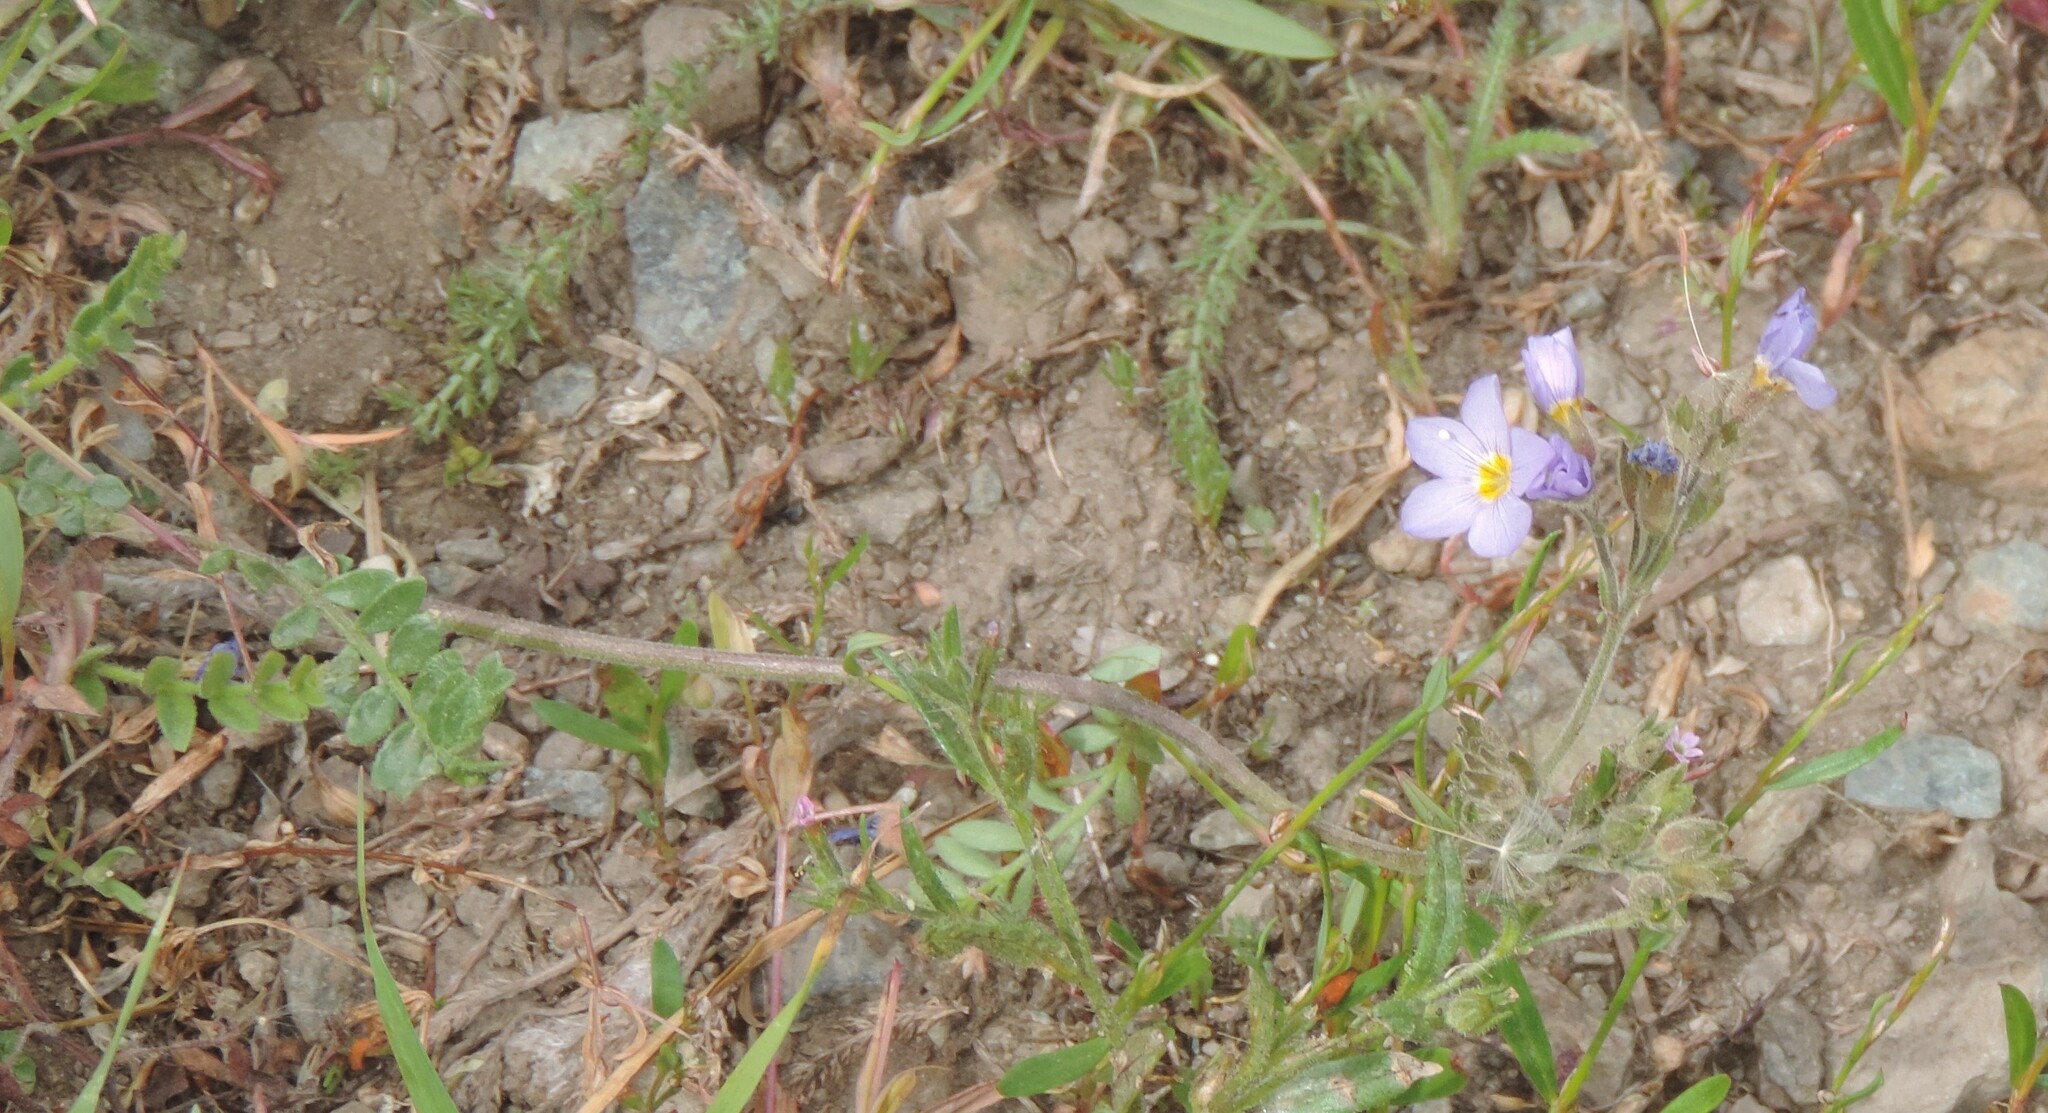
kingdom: Plantae
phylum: Tracheophyta
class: Magnoliopsida
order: Ericales
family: Polemoniaceae
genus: Polemonium
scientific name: Polemonium pulcherrimum
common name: Short jacob's-ladder
